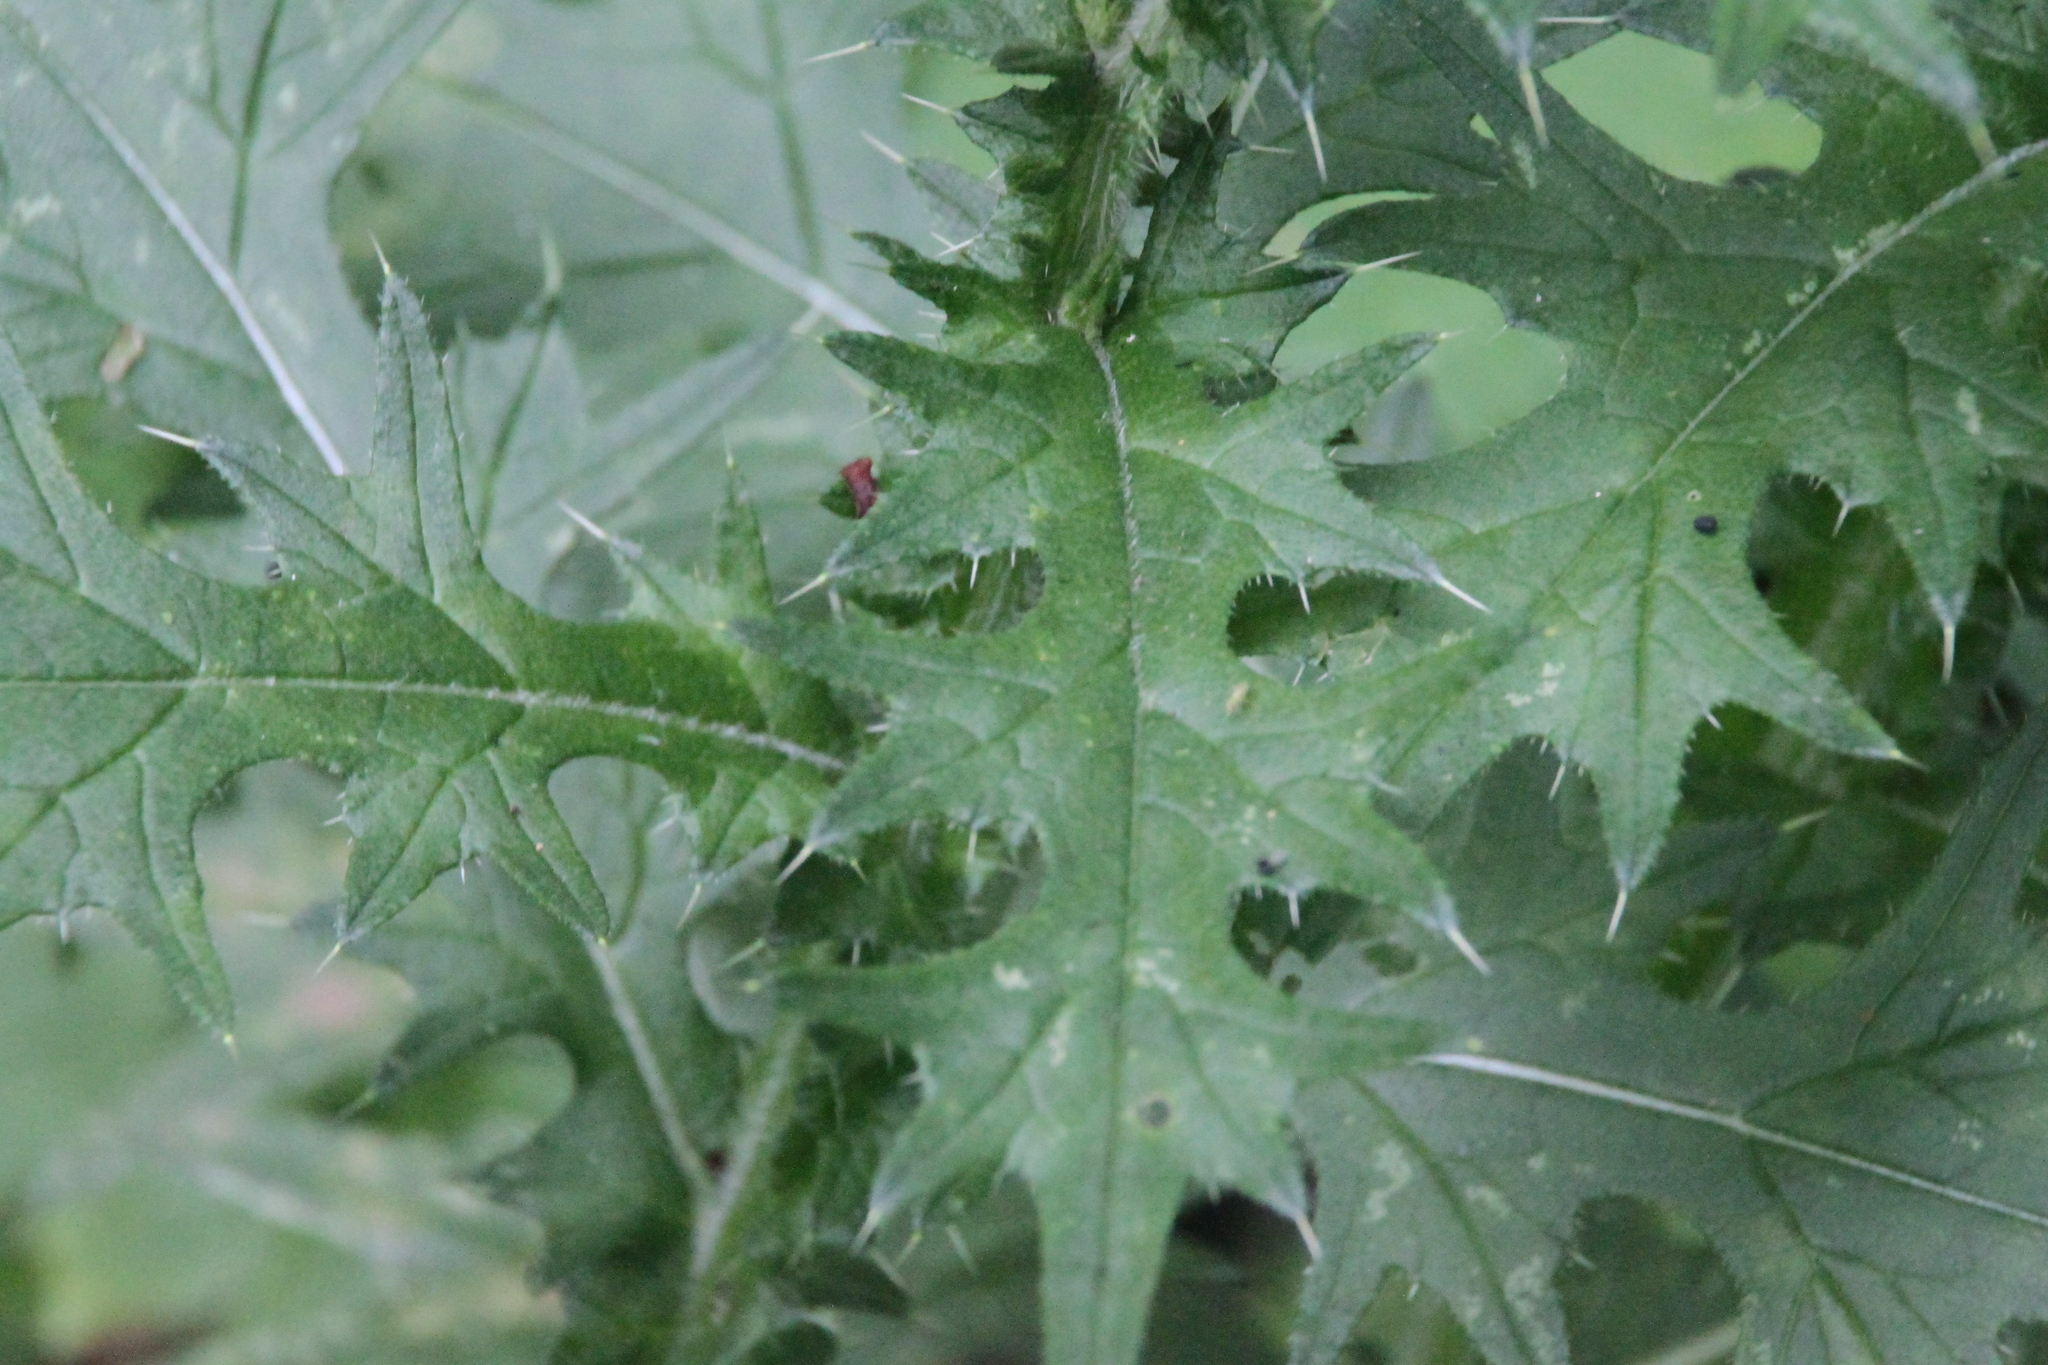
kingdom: Plantae
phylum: Tracheophyta
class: Magnoliopsida
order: Asterales
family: Asteraceae
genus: Cirsium
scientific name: Cirsium vulgare
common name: Bull thistle
